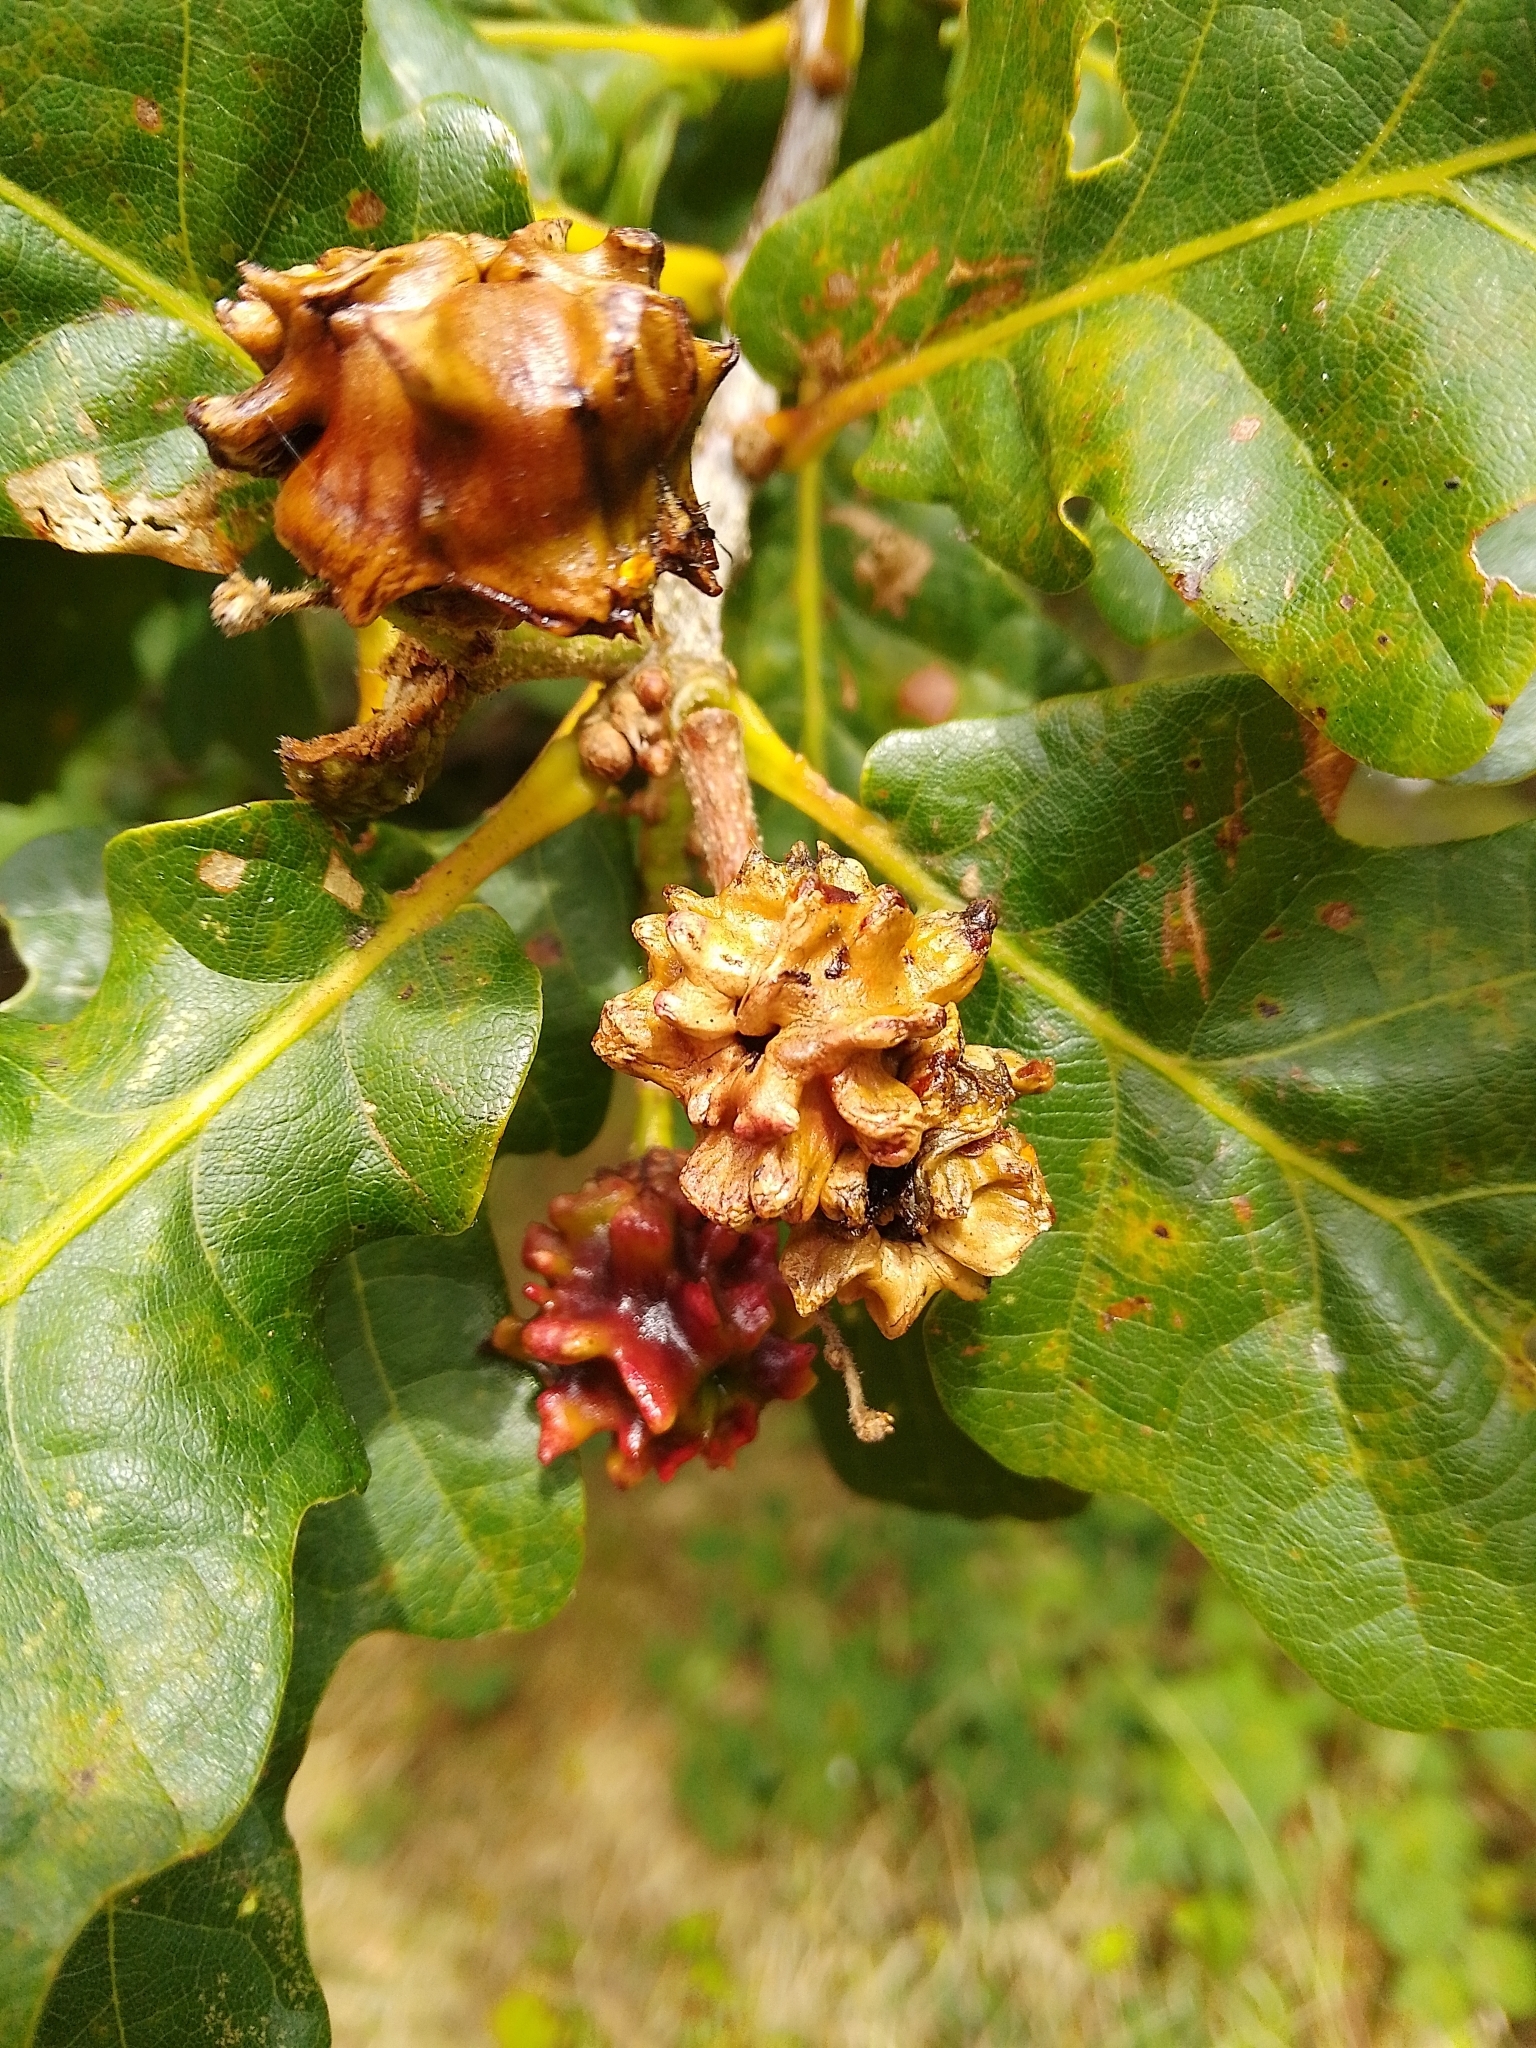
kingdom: Animalia
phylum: Arthropoda
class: Insecta
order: Hymenoptera
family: Cynipidae
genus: Andricus
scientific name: Andricus quercuscalicis
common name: Knopper gall
